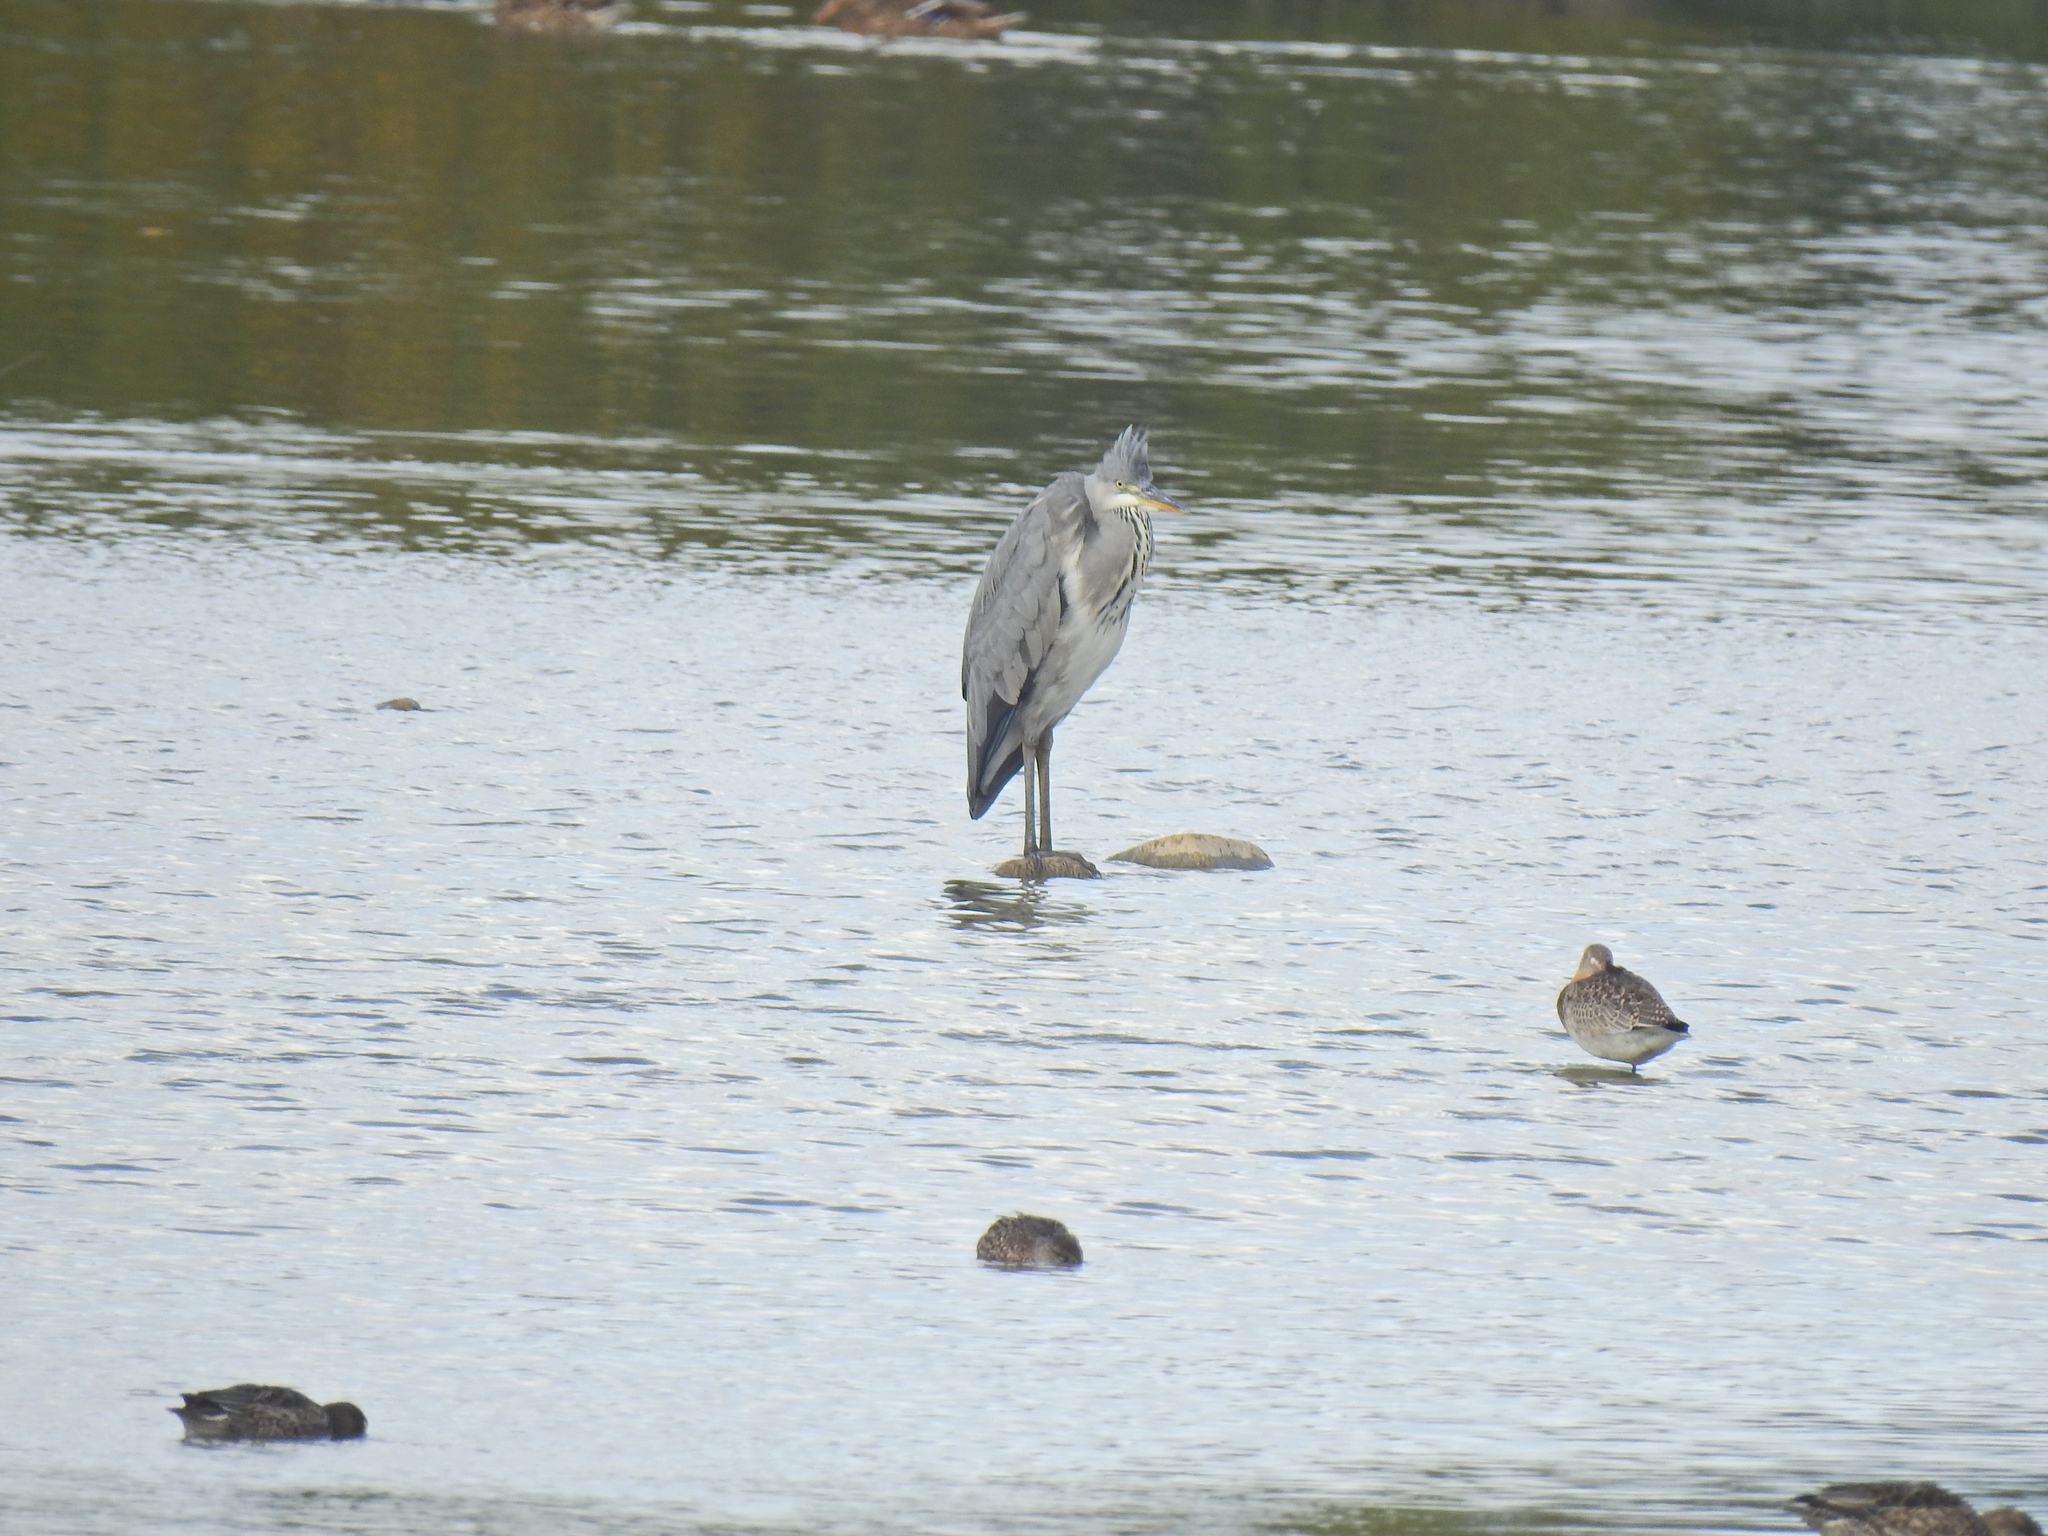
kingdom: Animalia
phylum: Chordata
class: Aves
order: Pelecaniformes
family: Ardeidae
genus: Ardea
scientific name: Ardea cinerea
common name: Grey heron
